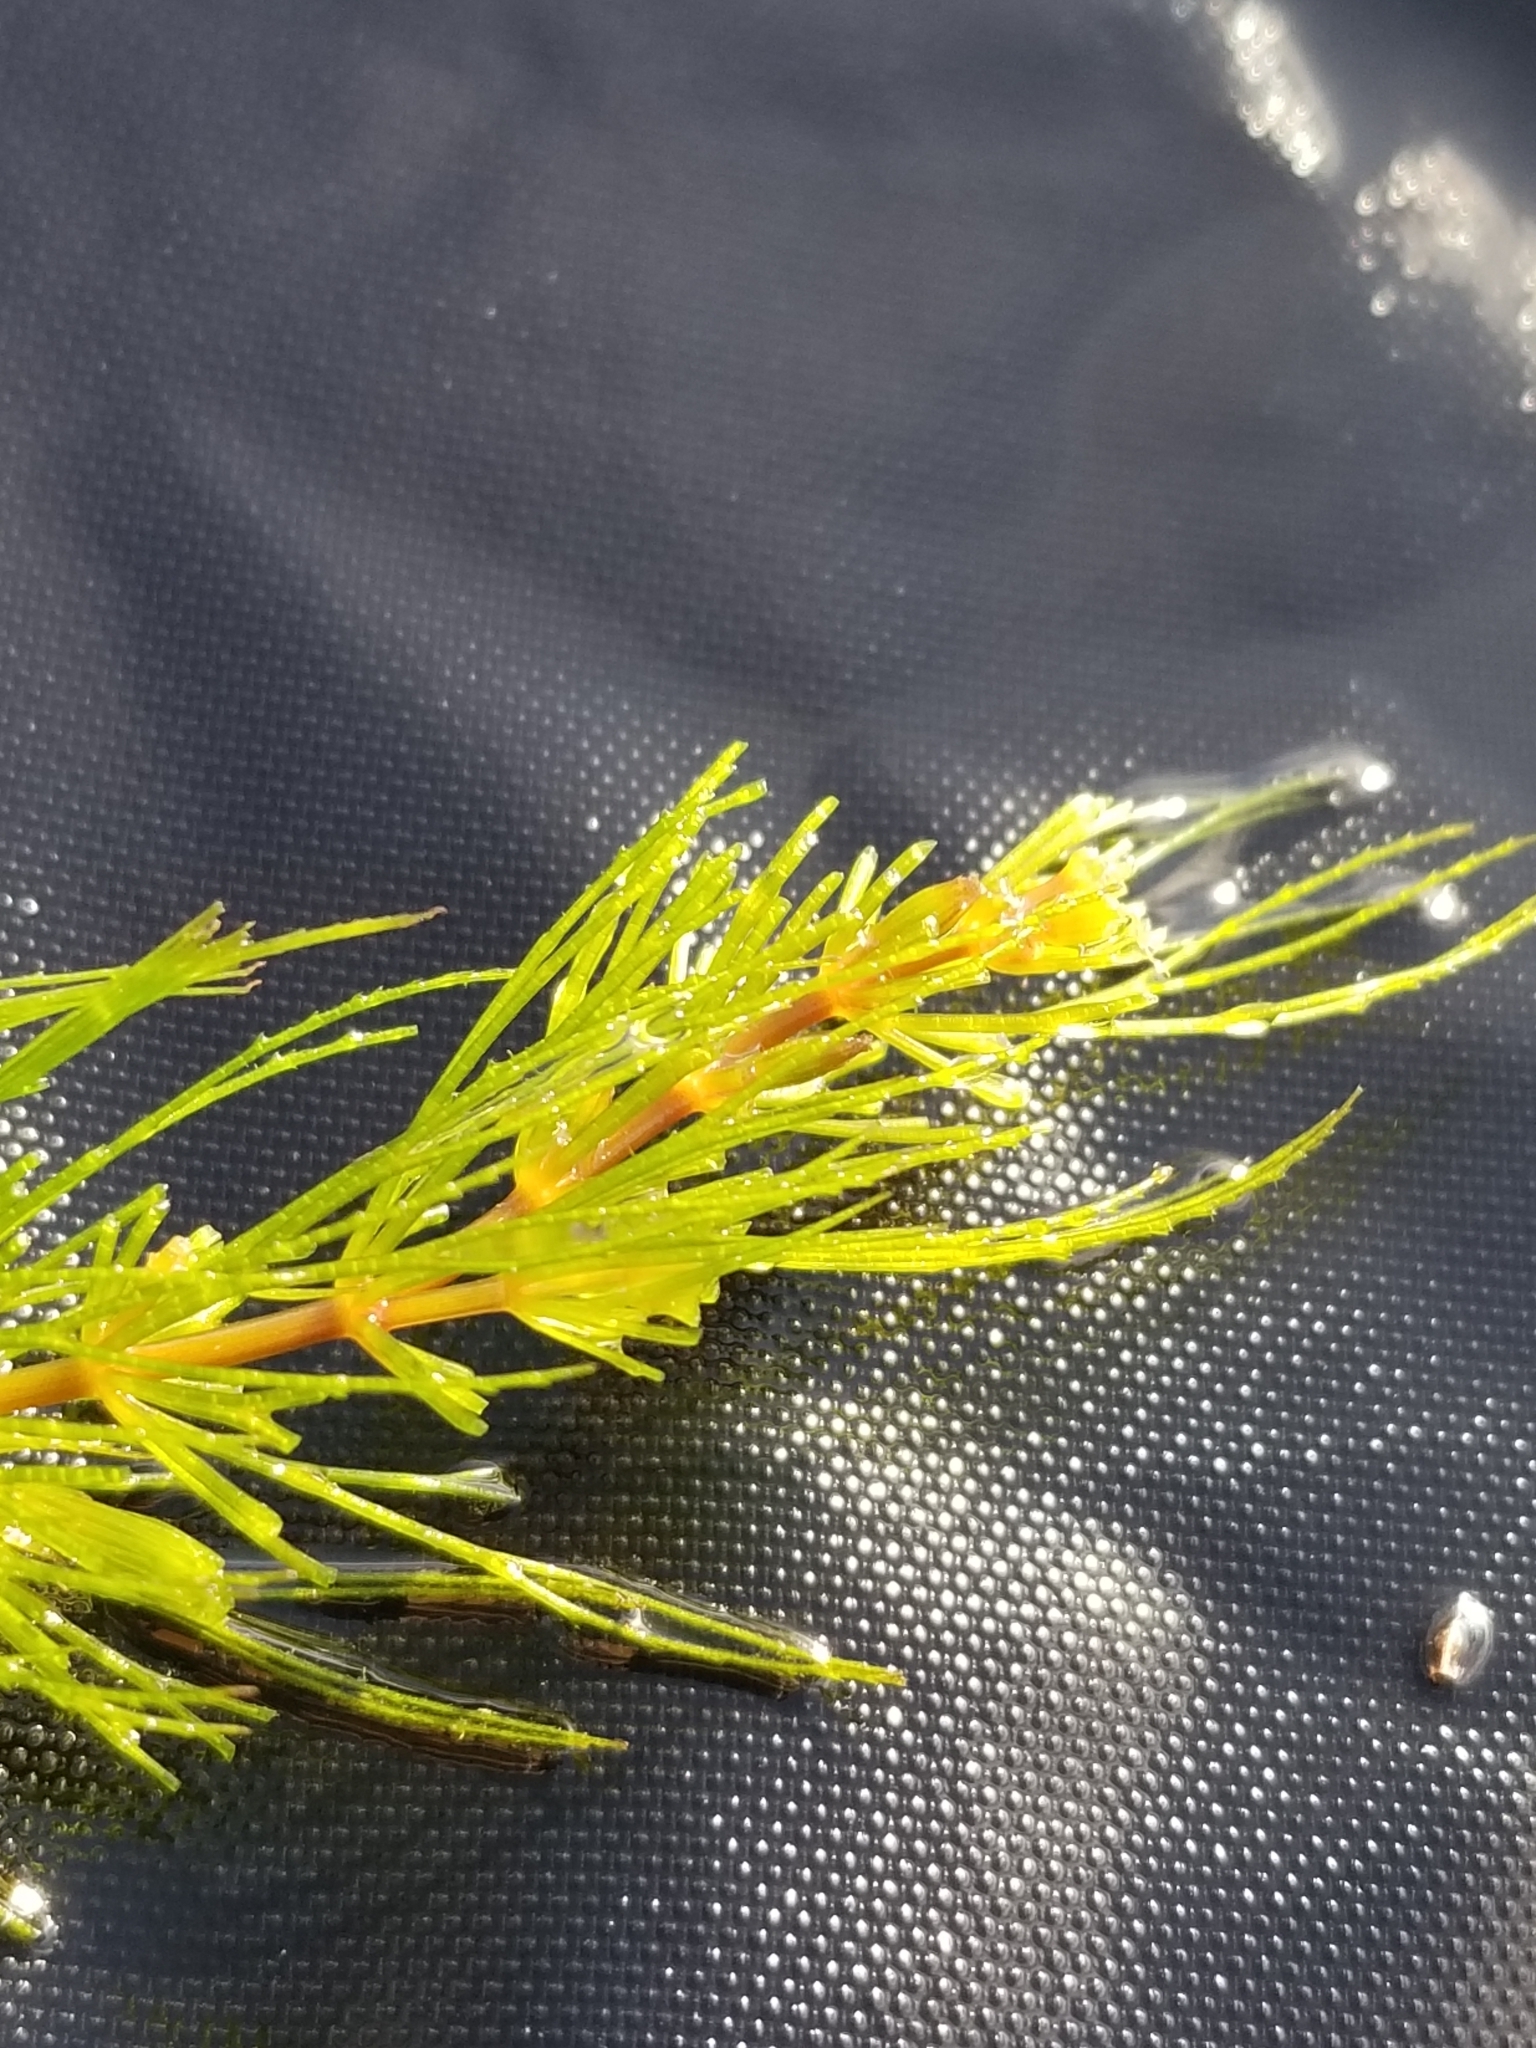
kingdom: Plantae
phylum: Tracheophyta
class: Magnoliopsida
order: Ceratophyllales
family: Ceratophyllaceae
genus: Ceratophyllum
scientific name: Ceratophyllum demersum
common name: Rigid hornwort
